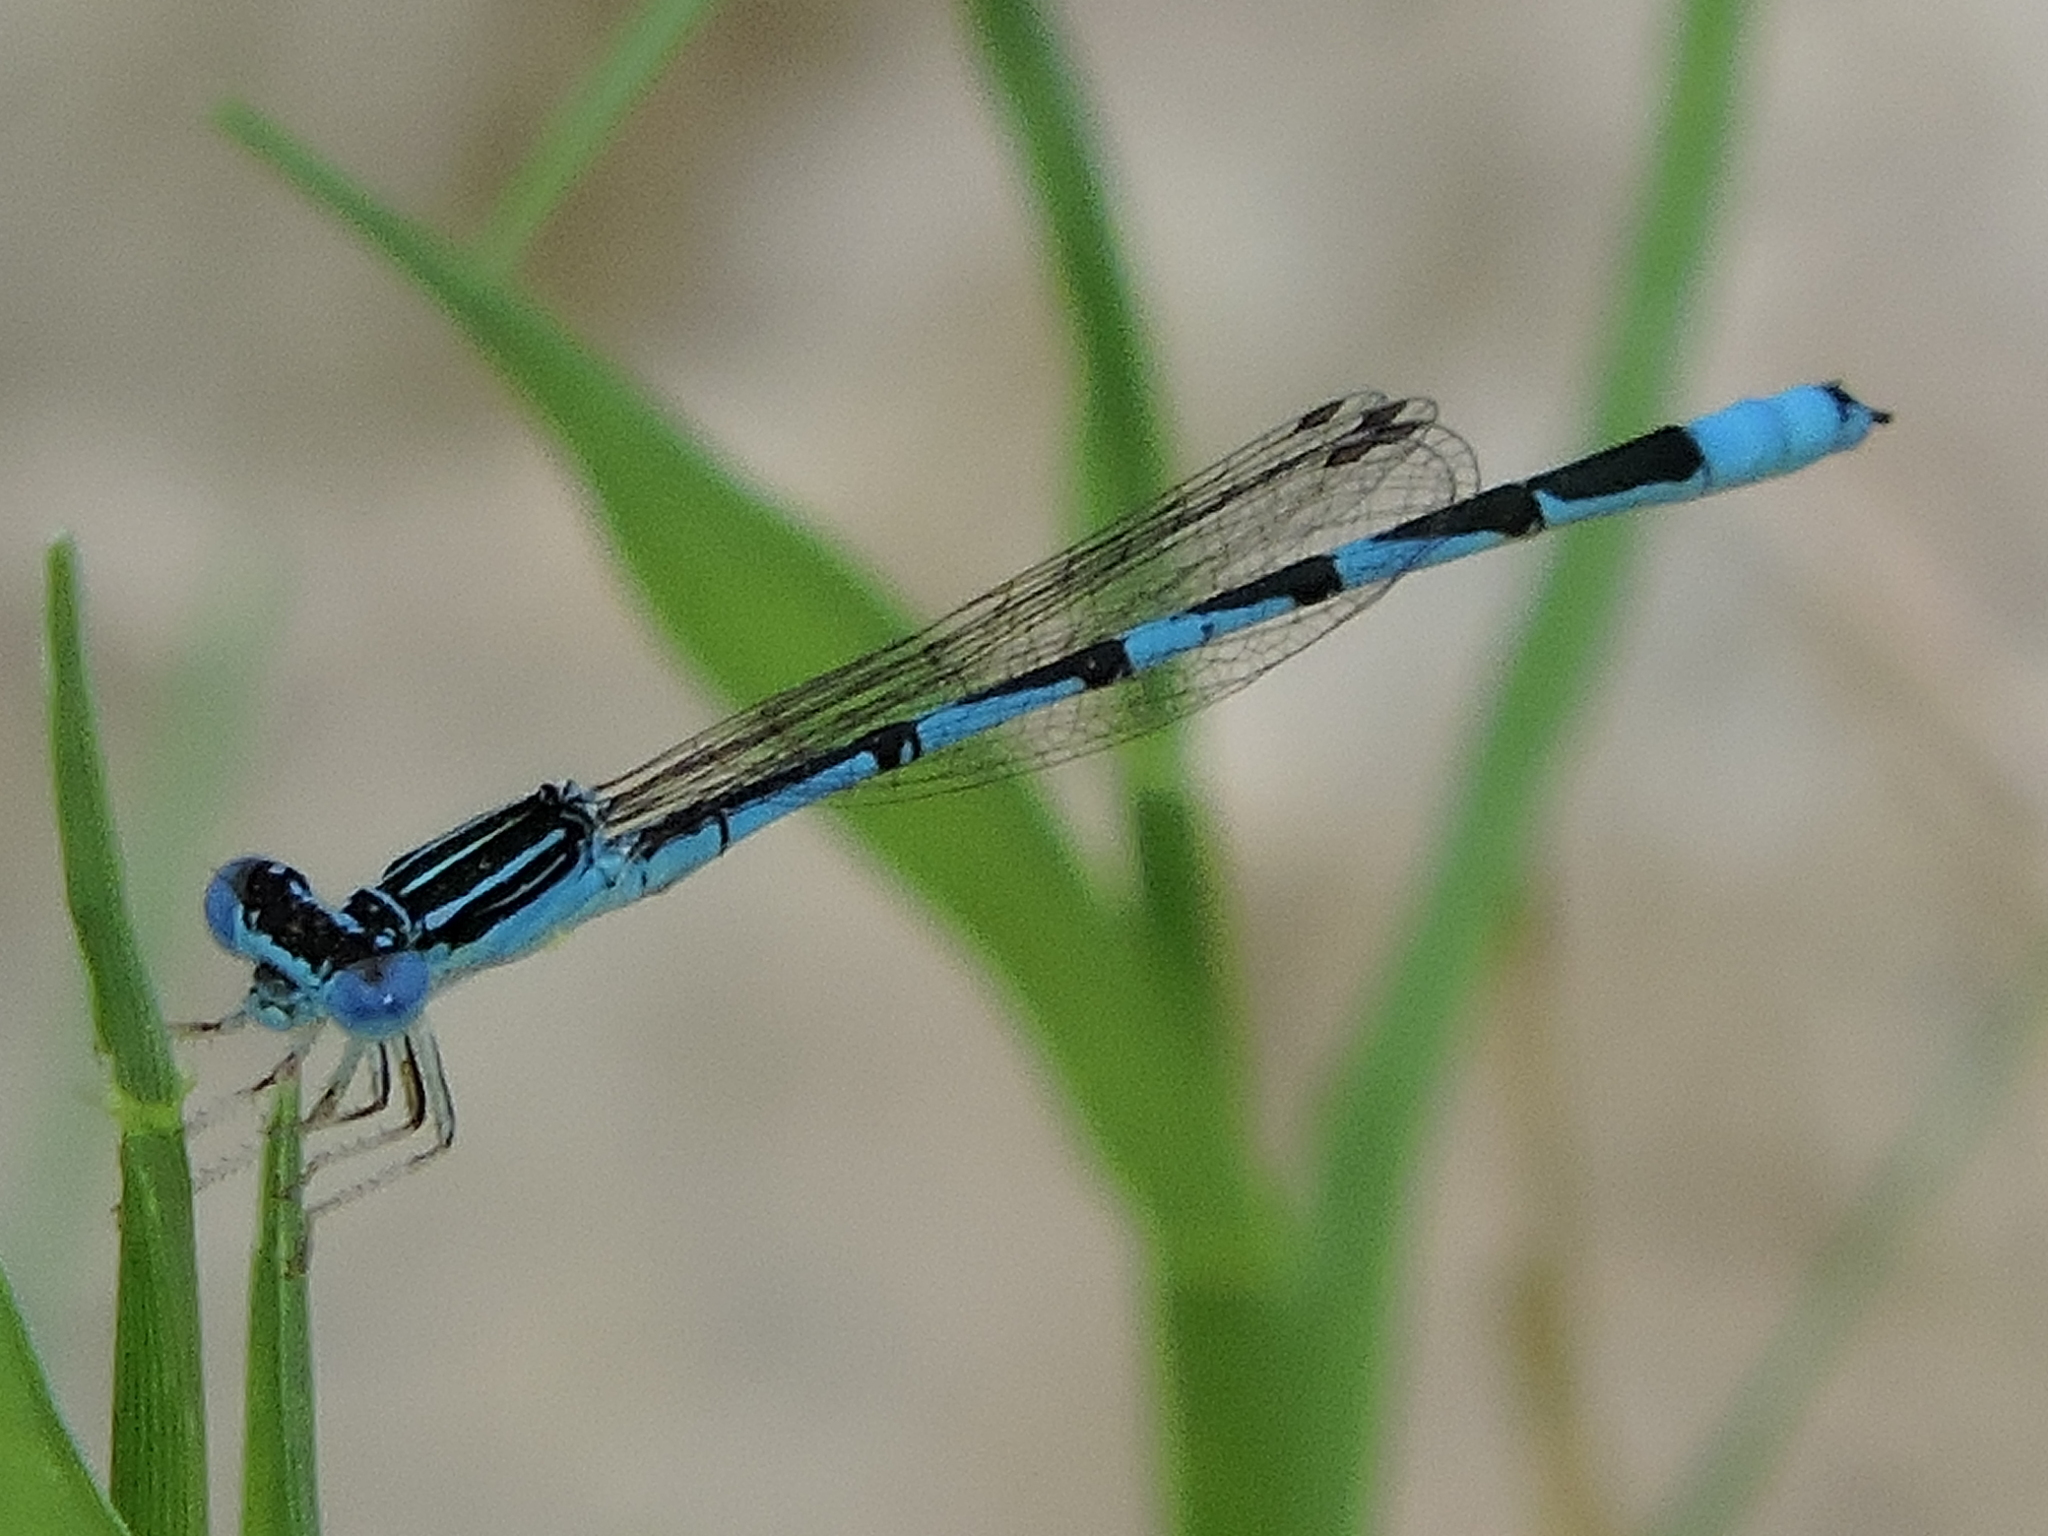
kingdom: Animalia
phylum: Arthropoda
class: Insecta
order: Odonata
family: Coenagrionidae
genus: Enallagma
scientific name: Enallagma basidens
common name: Double-striped bluet
